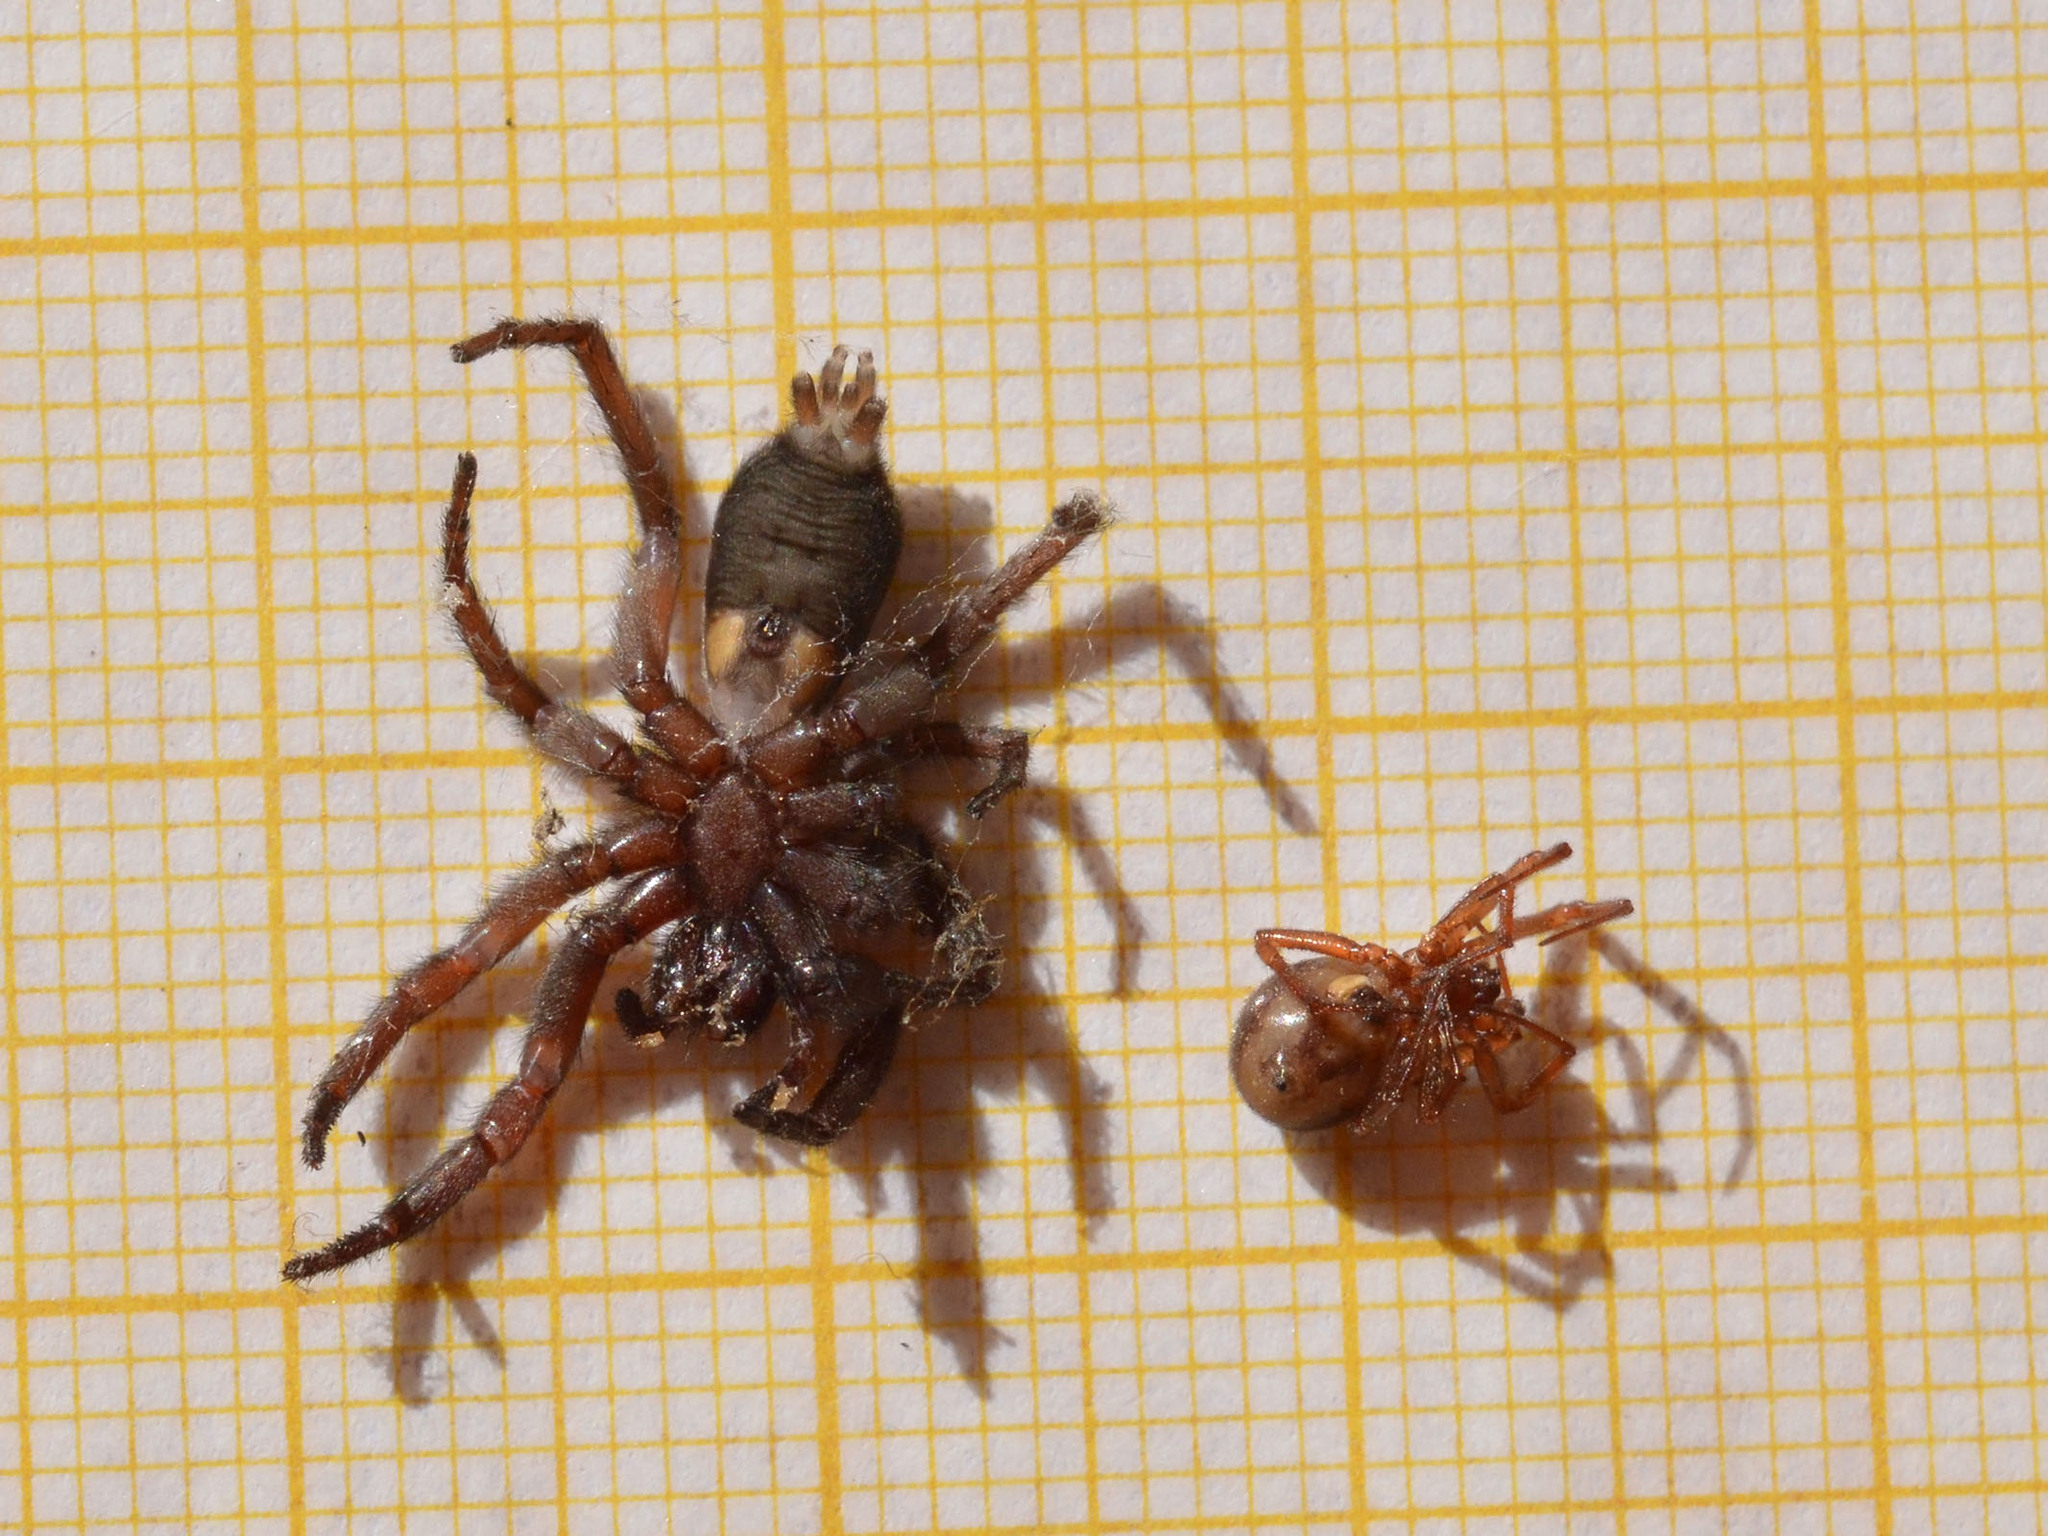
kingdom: Animalia
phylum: Arthropoda
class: Arachnida
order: Araneae
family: Theridiidae
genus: Steatoda
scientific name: Steatoda bipunctata
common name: False widow
